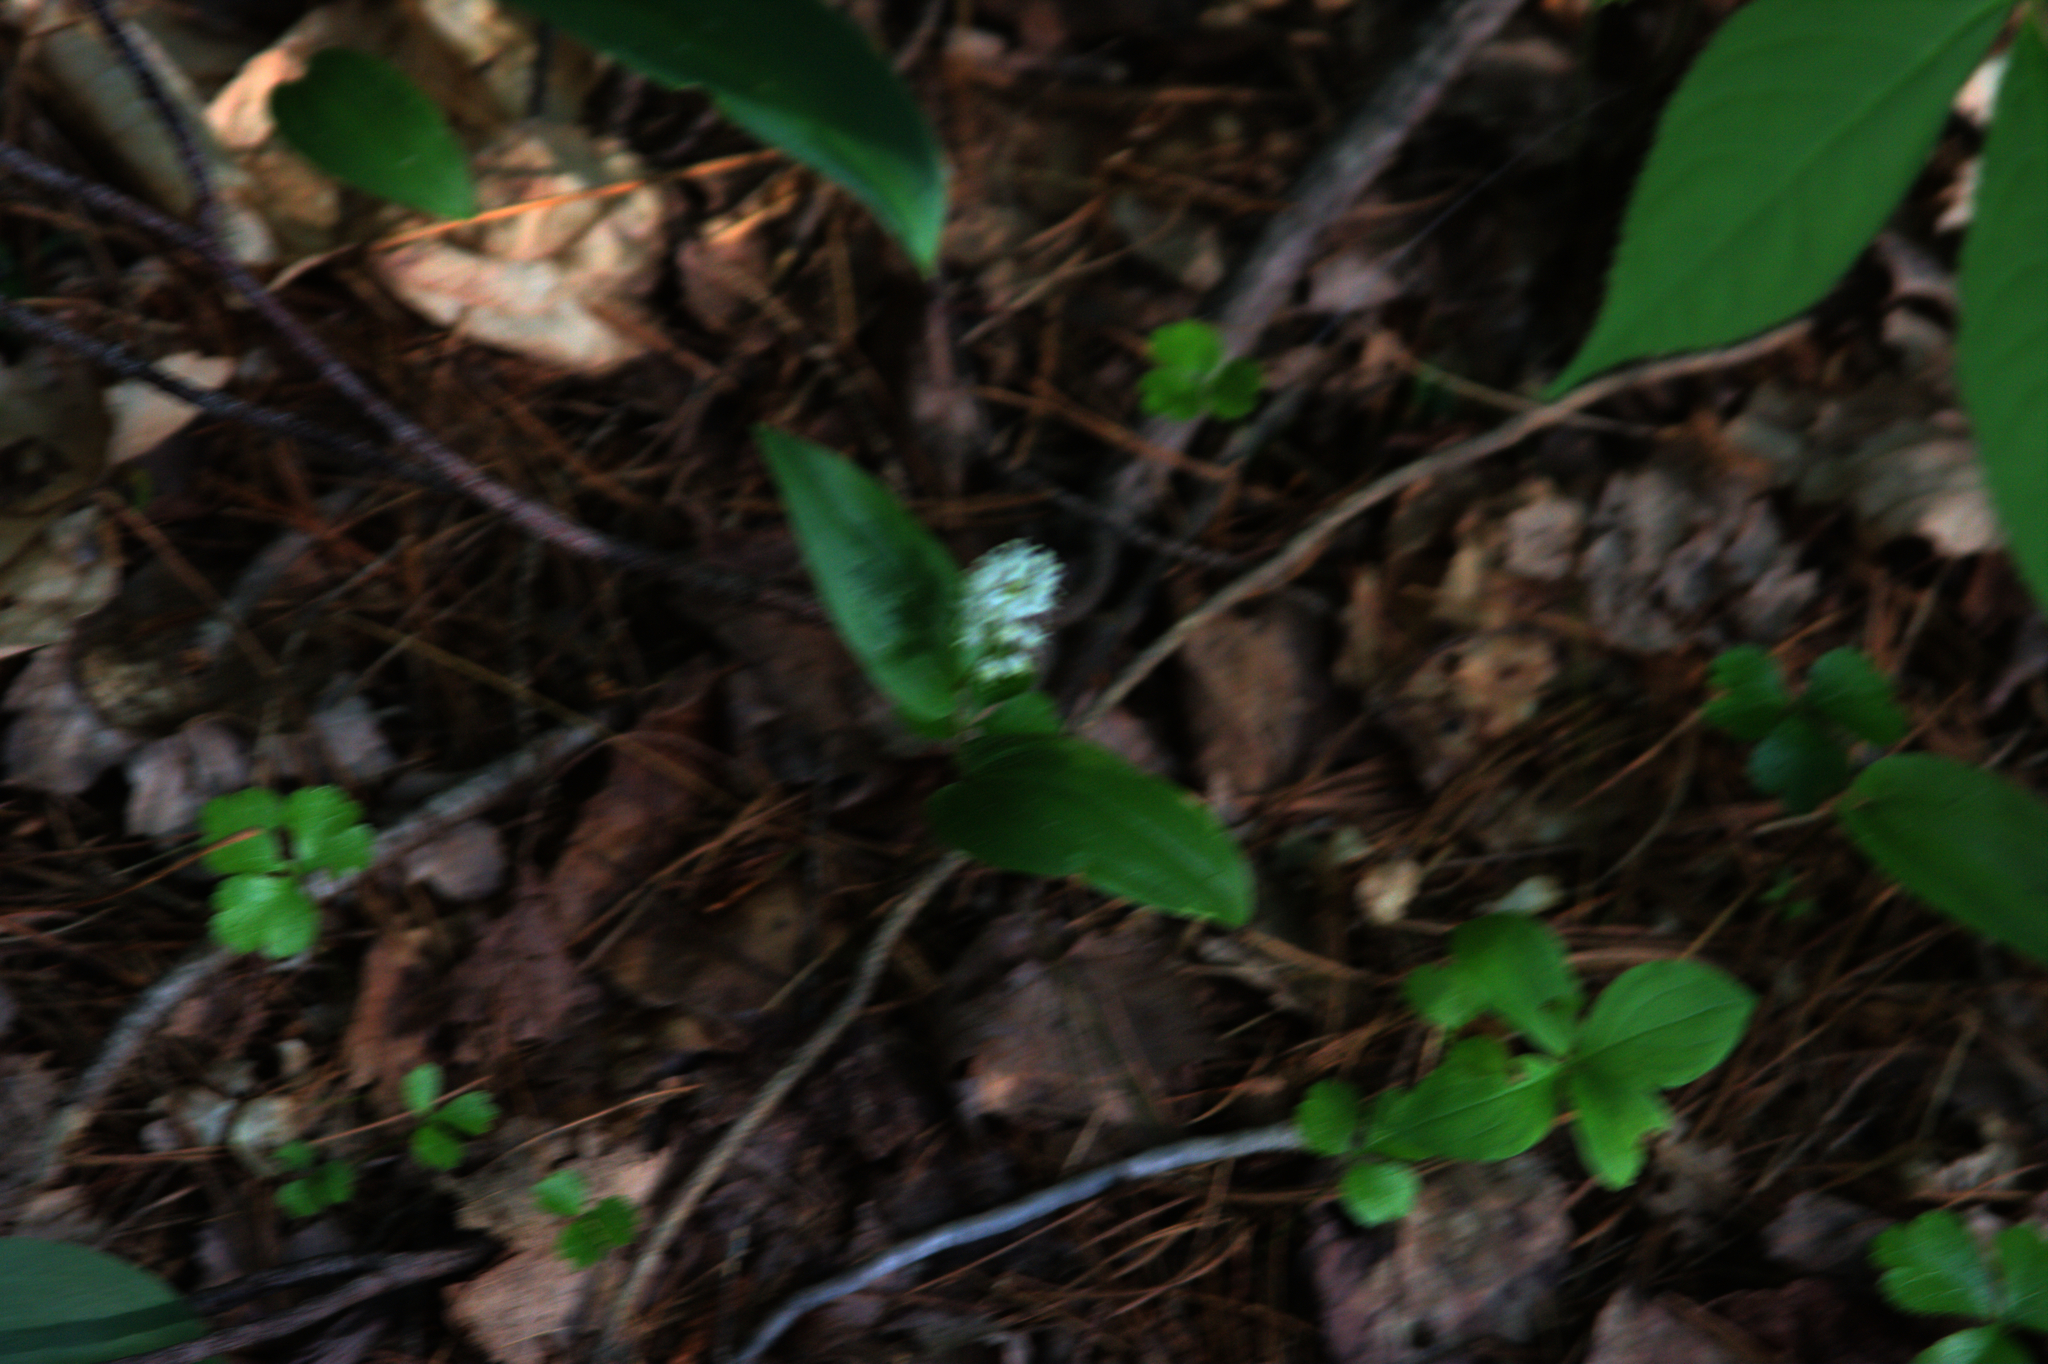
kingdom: Plantae
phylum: Tracheophyta
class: Liliopsida
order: Asparagales
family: Asparagaceae
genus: Maianthemum
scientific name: Maianthemum canadense
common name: False lily-of-the-valley
